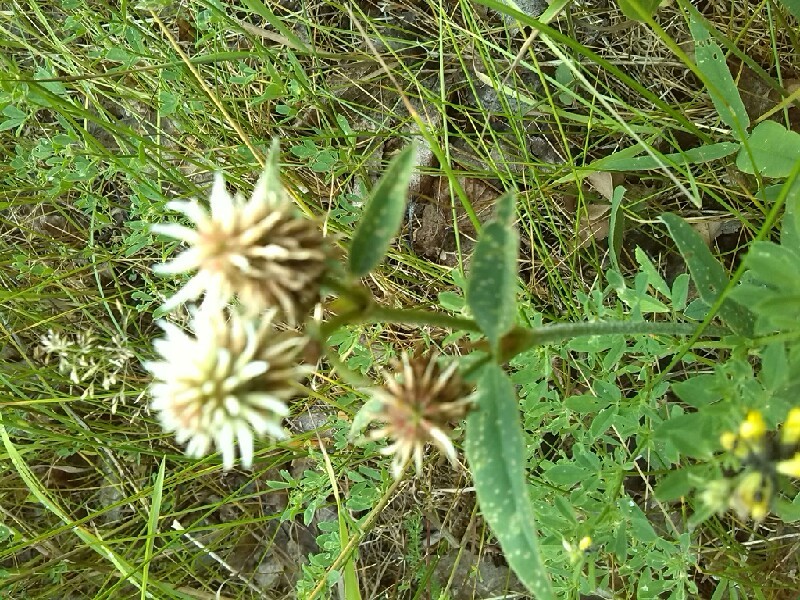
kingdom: Plantae
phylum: Tracheophyta
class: Magnoliopsida
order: Fabales
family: Fabaceae
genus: Trifolium
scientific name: Trifolium montanum
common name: Mountain clover
